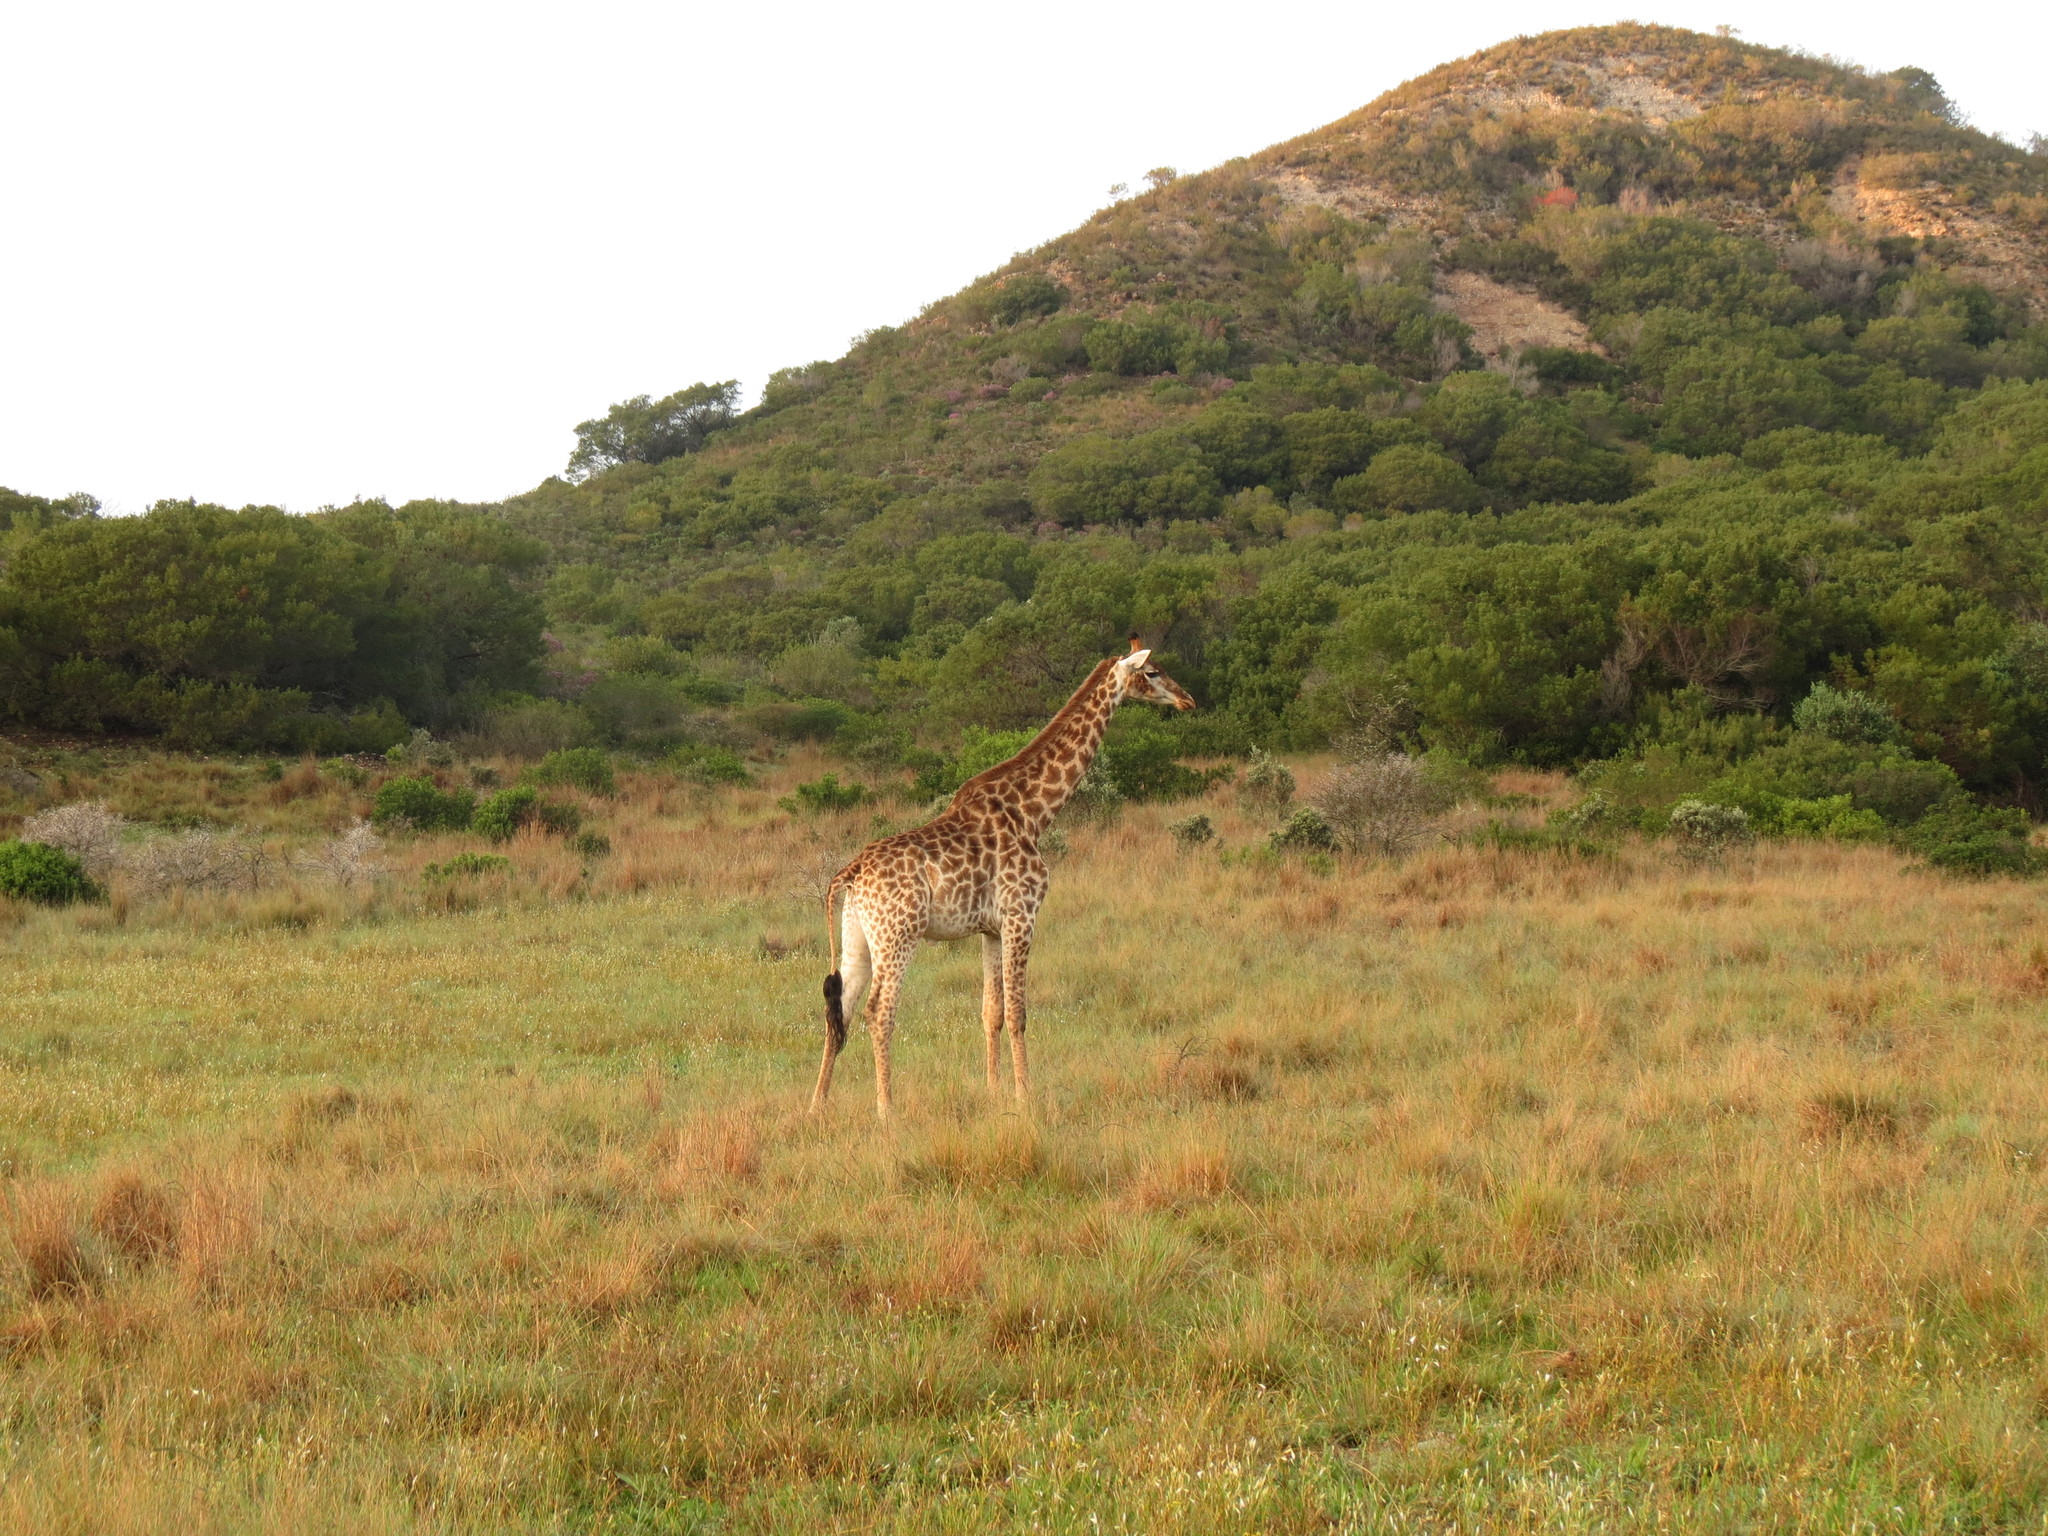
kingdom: Animalia
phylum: Chordata
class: Mammalia
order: Artiodactyla
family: Giraffidae
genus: Giraffa
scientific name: Giraffa giraffa
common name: Southern giraffe
